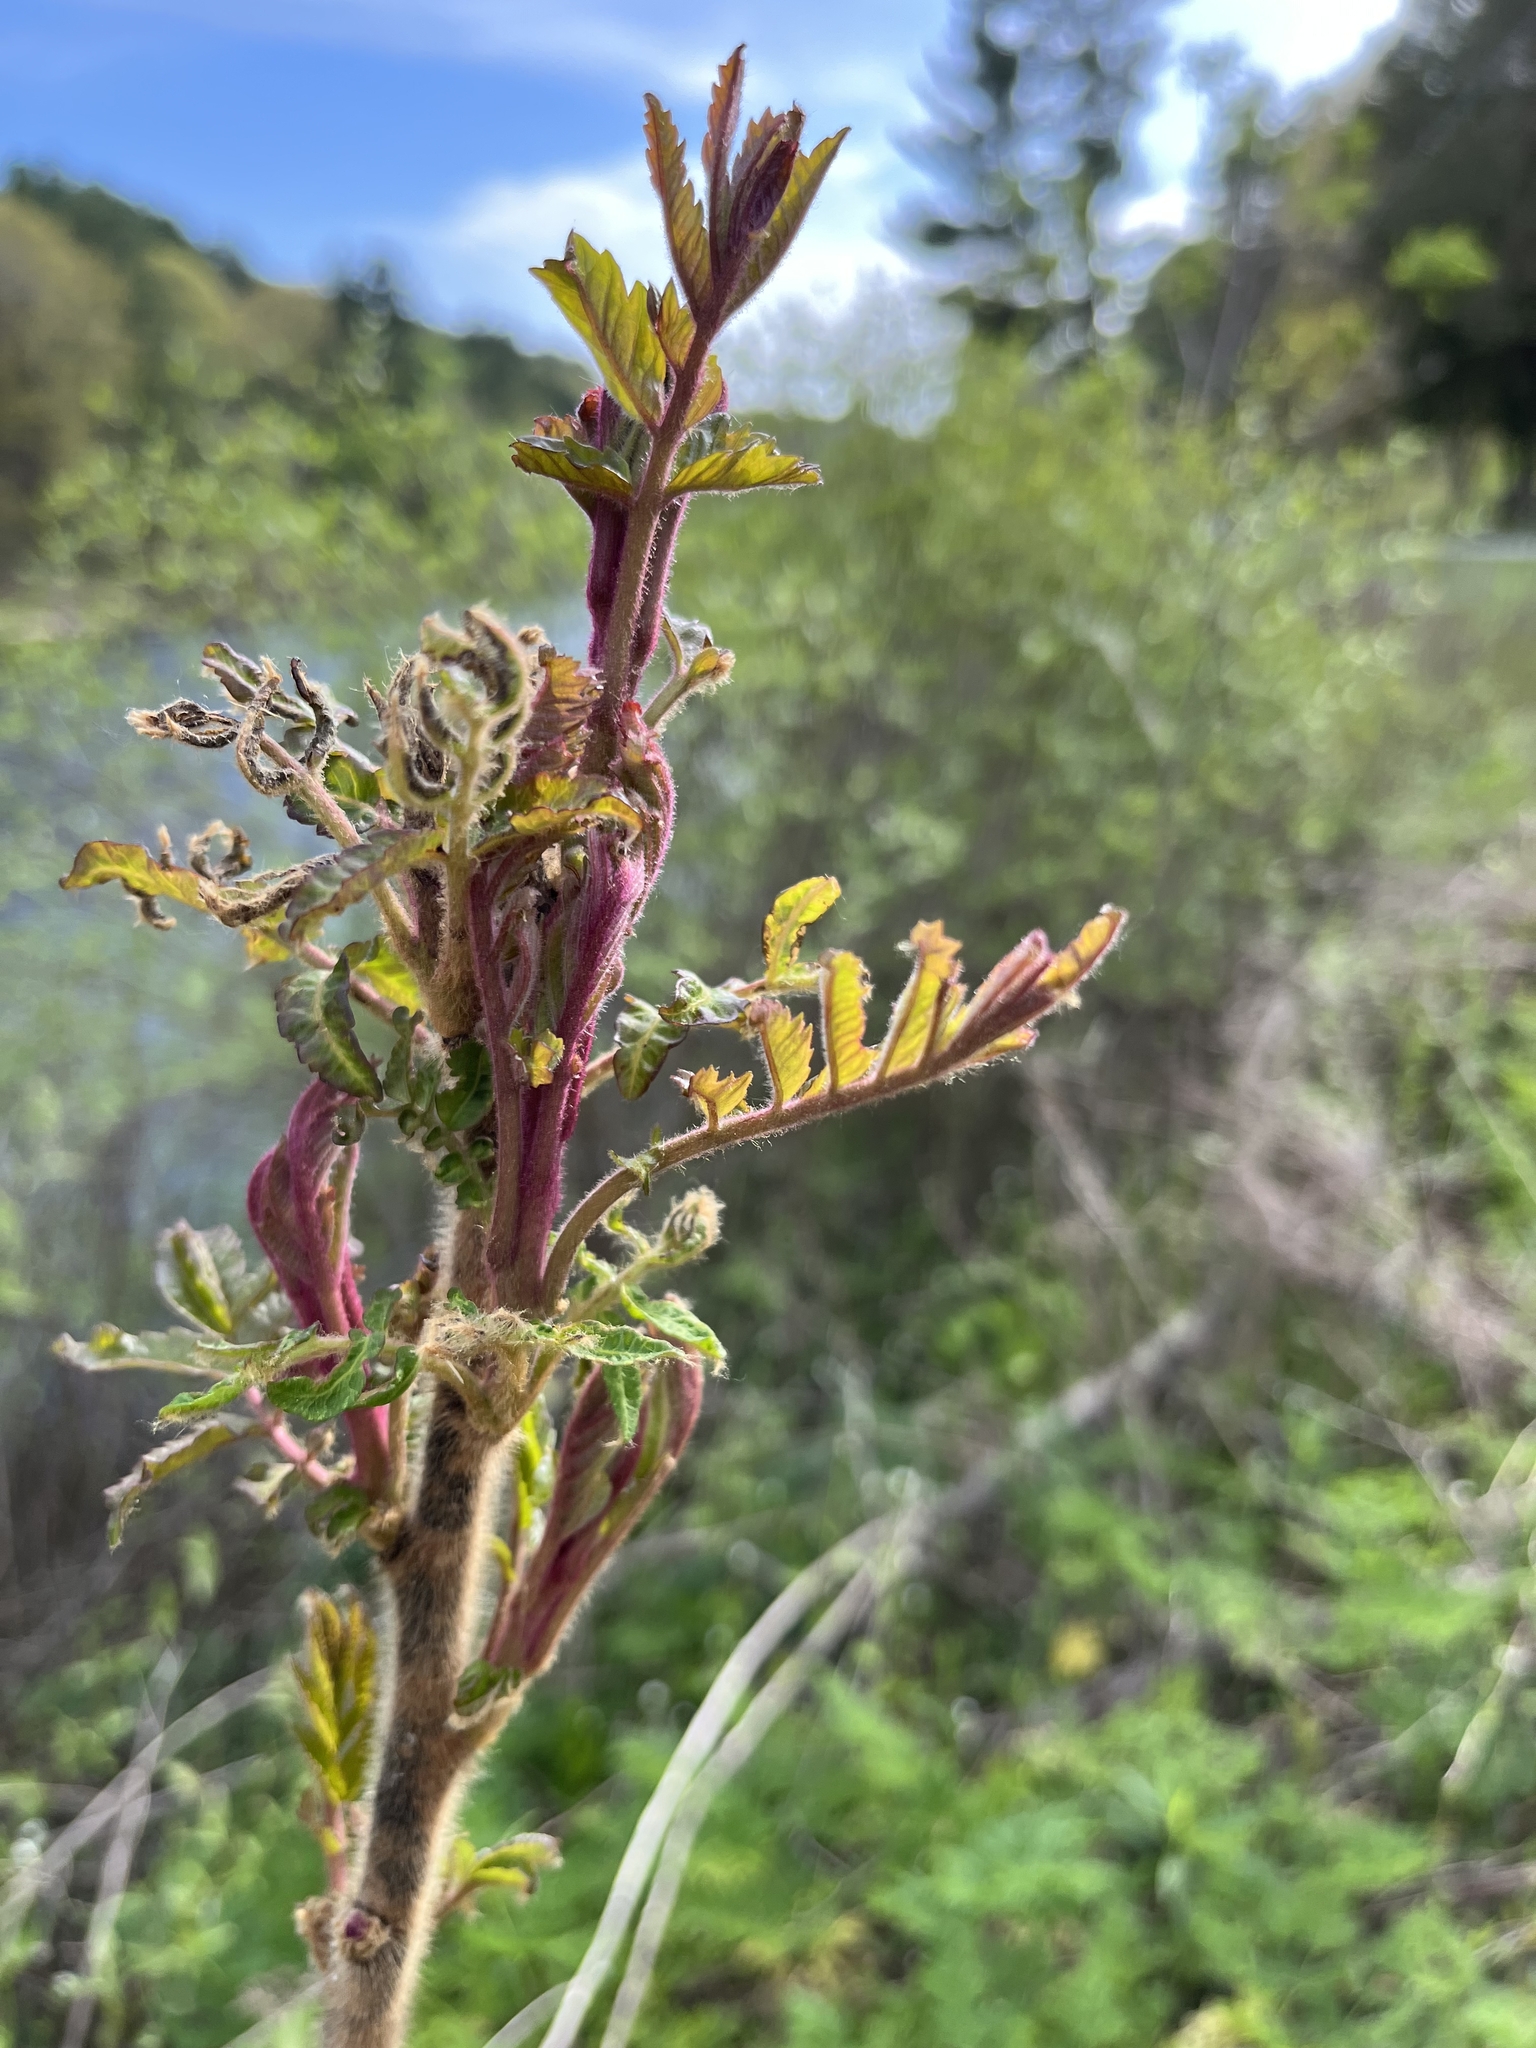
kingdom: Plantae
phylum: Tracheophyta
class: Magnoliopsida
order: Sapindales
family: Anacardiaceae
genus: Rhus
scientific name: Rhus typhina
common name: Staghorn sumac
